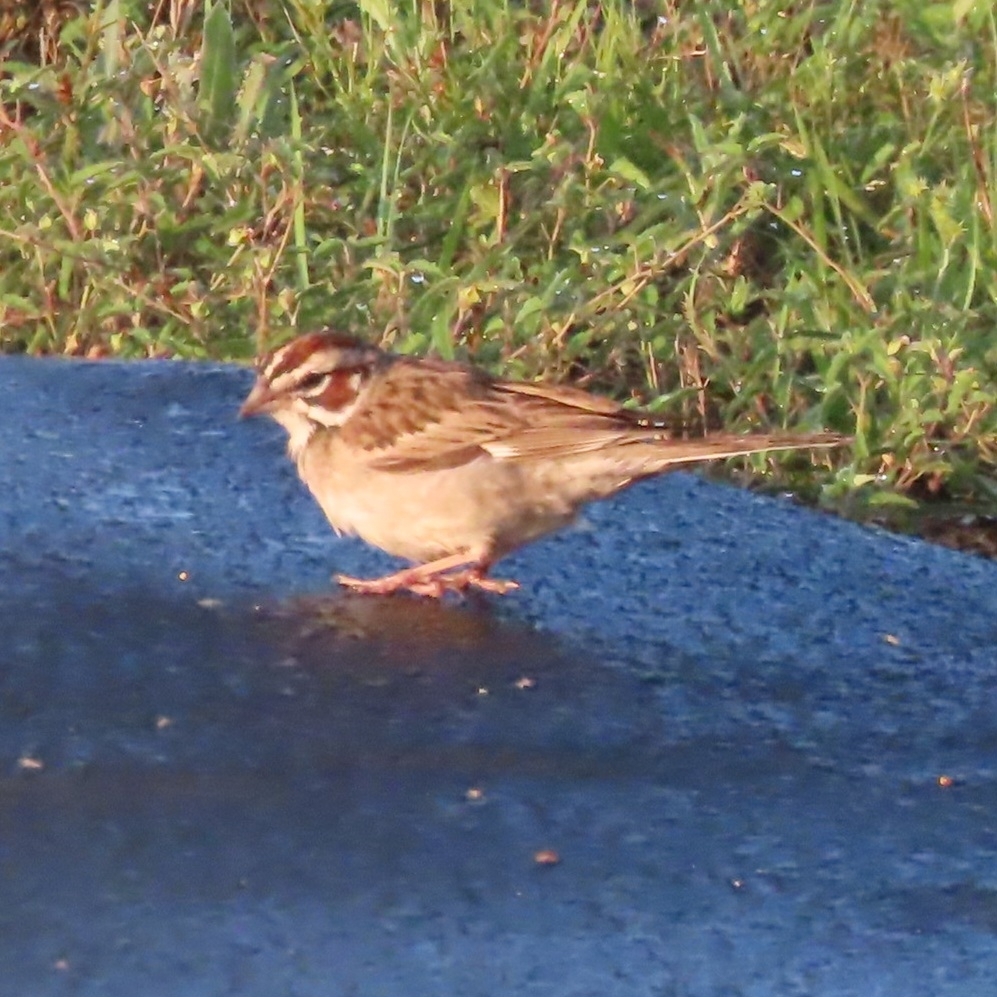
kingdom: Animalia
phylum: Chordata
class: Aves
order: Passeriformes
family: Passerellidae
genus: Chondestes
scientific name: Chondestes grammacus
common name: Lark sparrow
